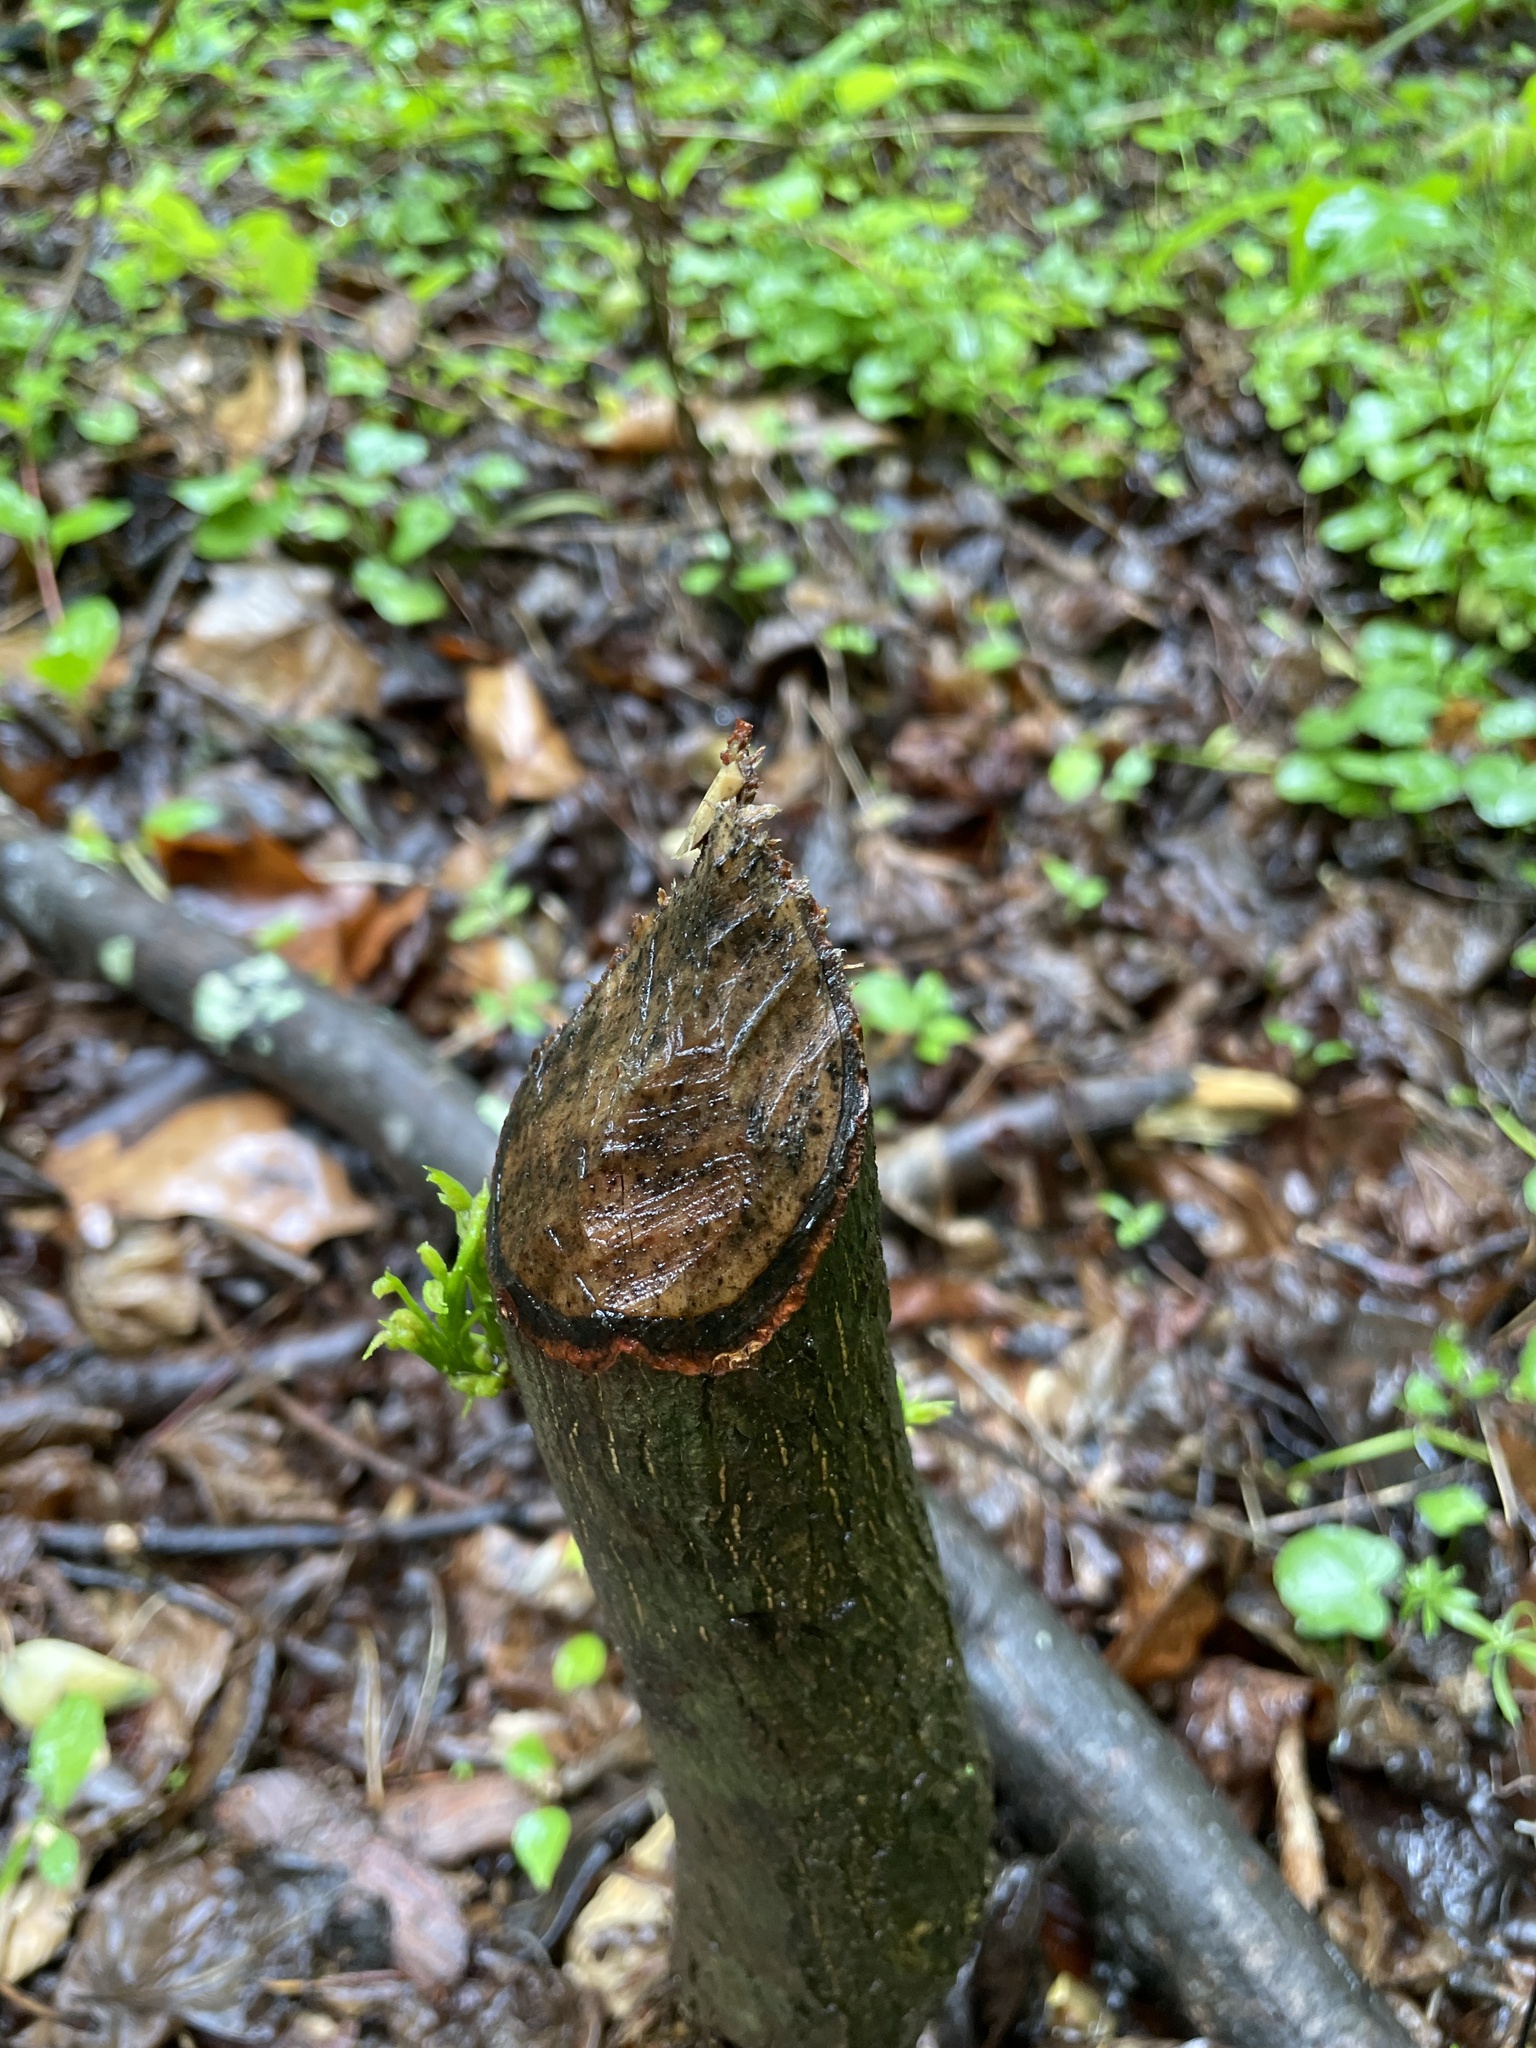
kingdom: Animalia
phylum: Chordata
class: Mammalia
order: Rodentia
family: Castoridae
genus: Castor
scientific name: Castor canadensis
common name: American beaver
